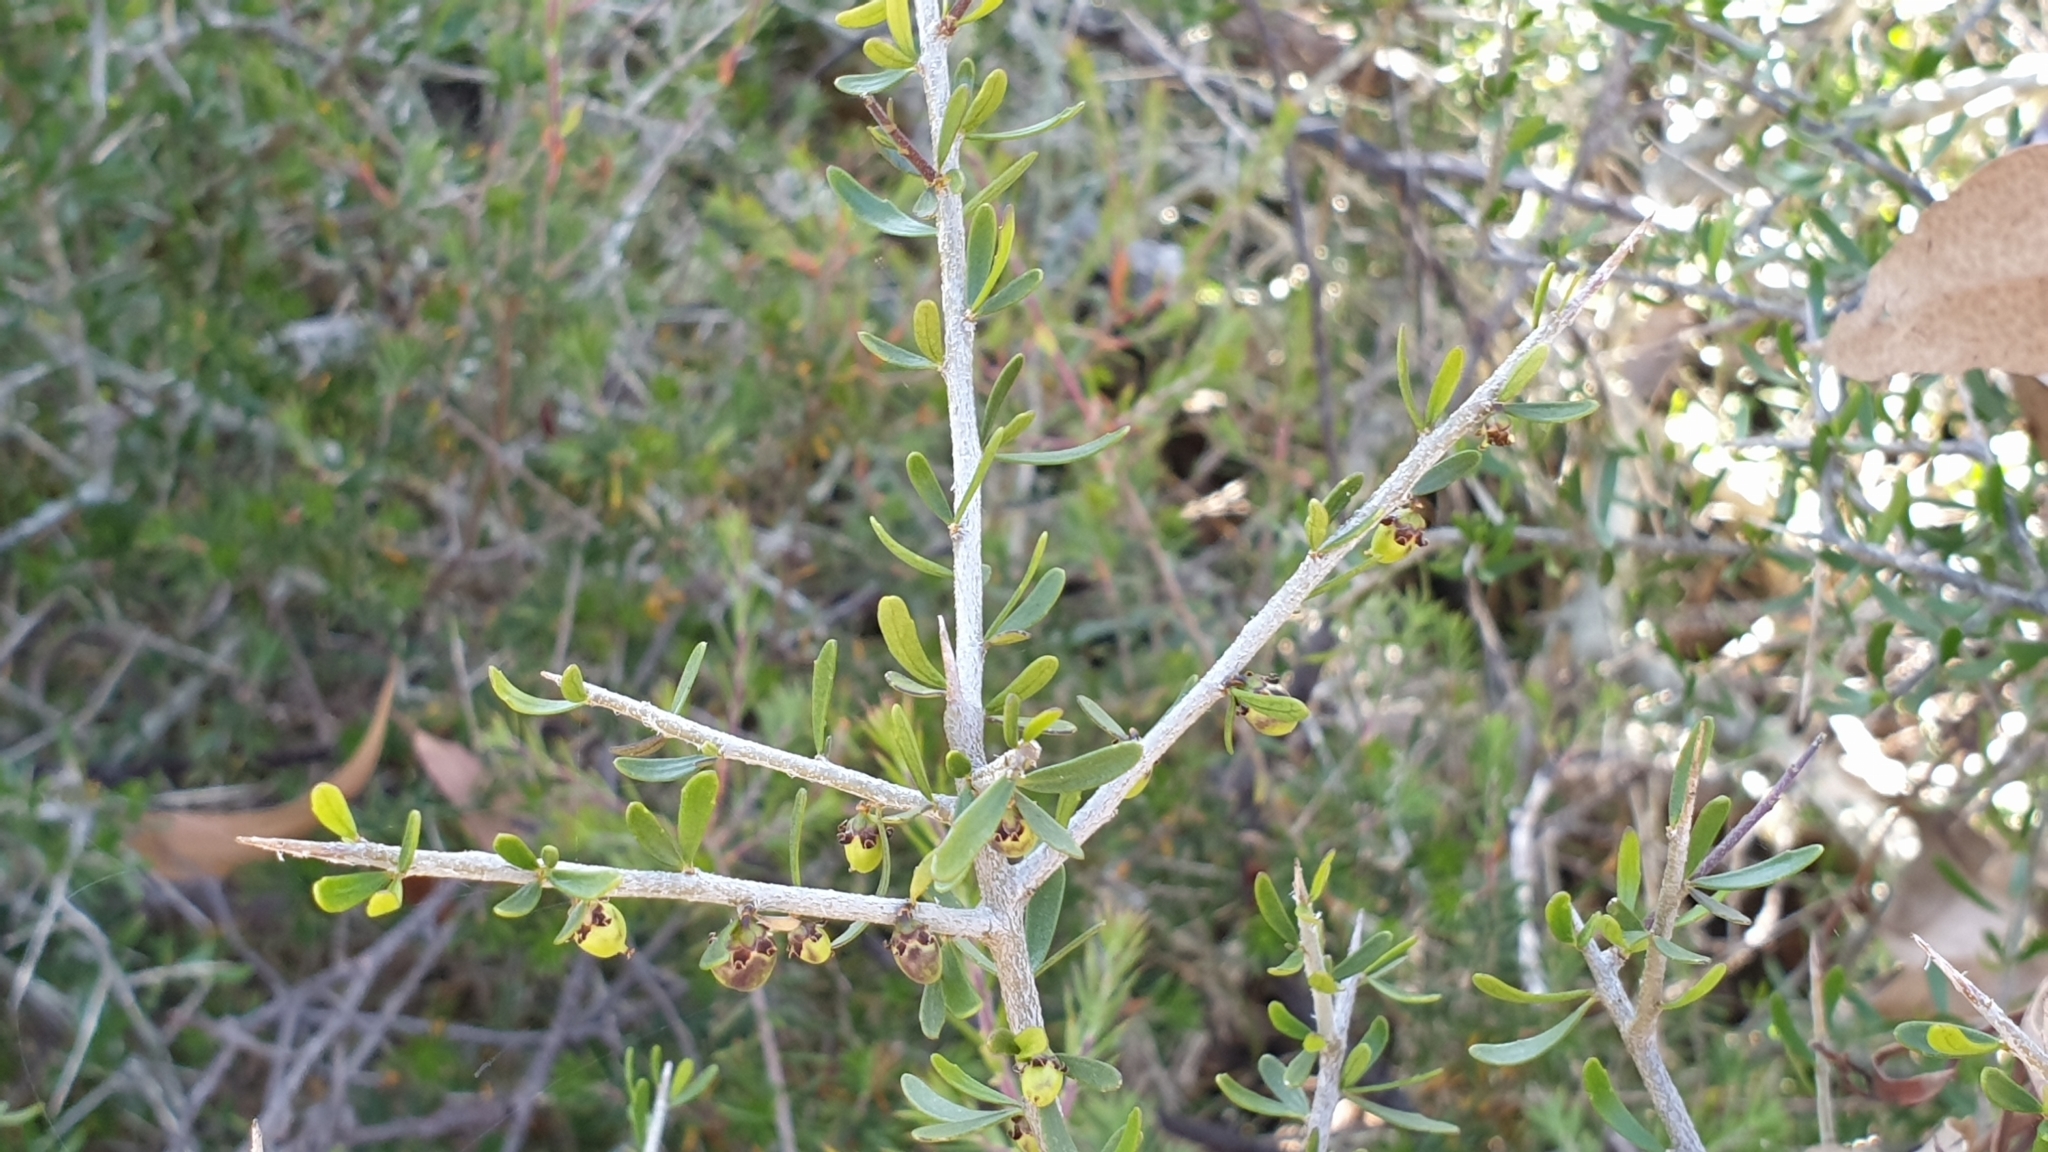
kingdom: Plantae
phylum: Tracheophyta
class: Magnoliopsida
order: Malpighiales
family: Violaceae
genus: Melicytus
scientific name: Melicytus angustifolius
